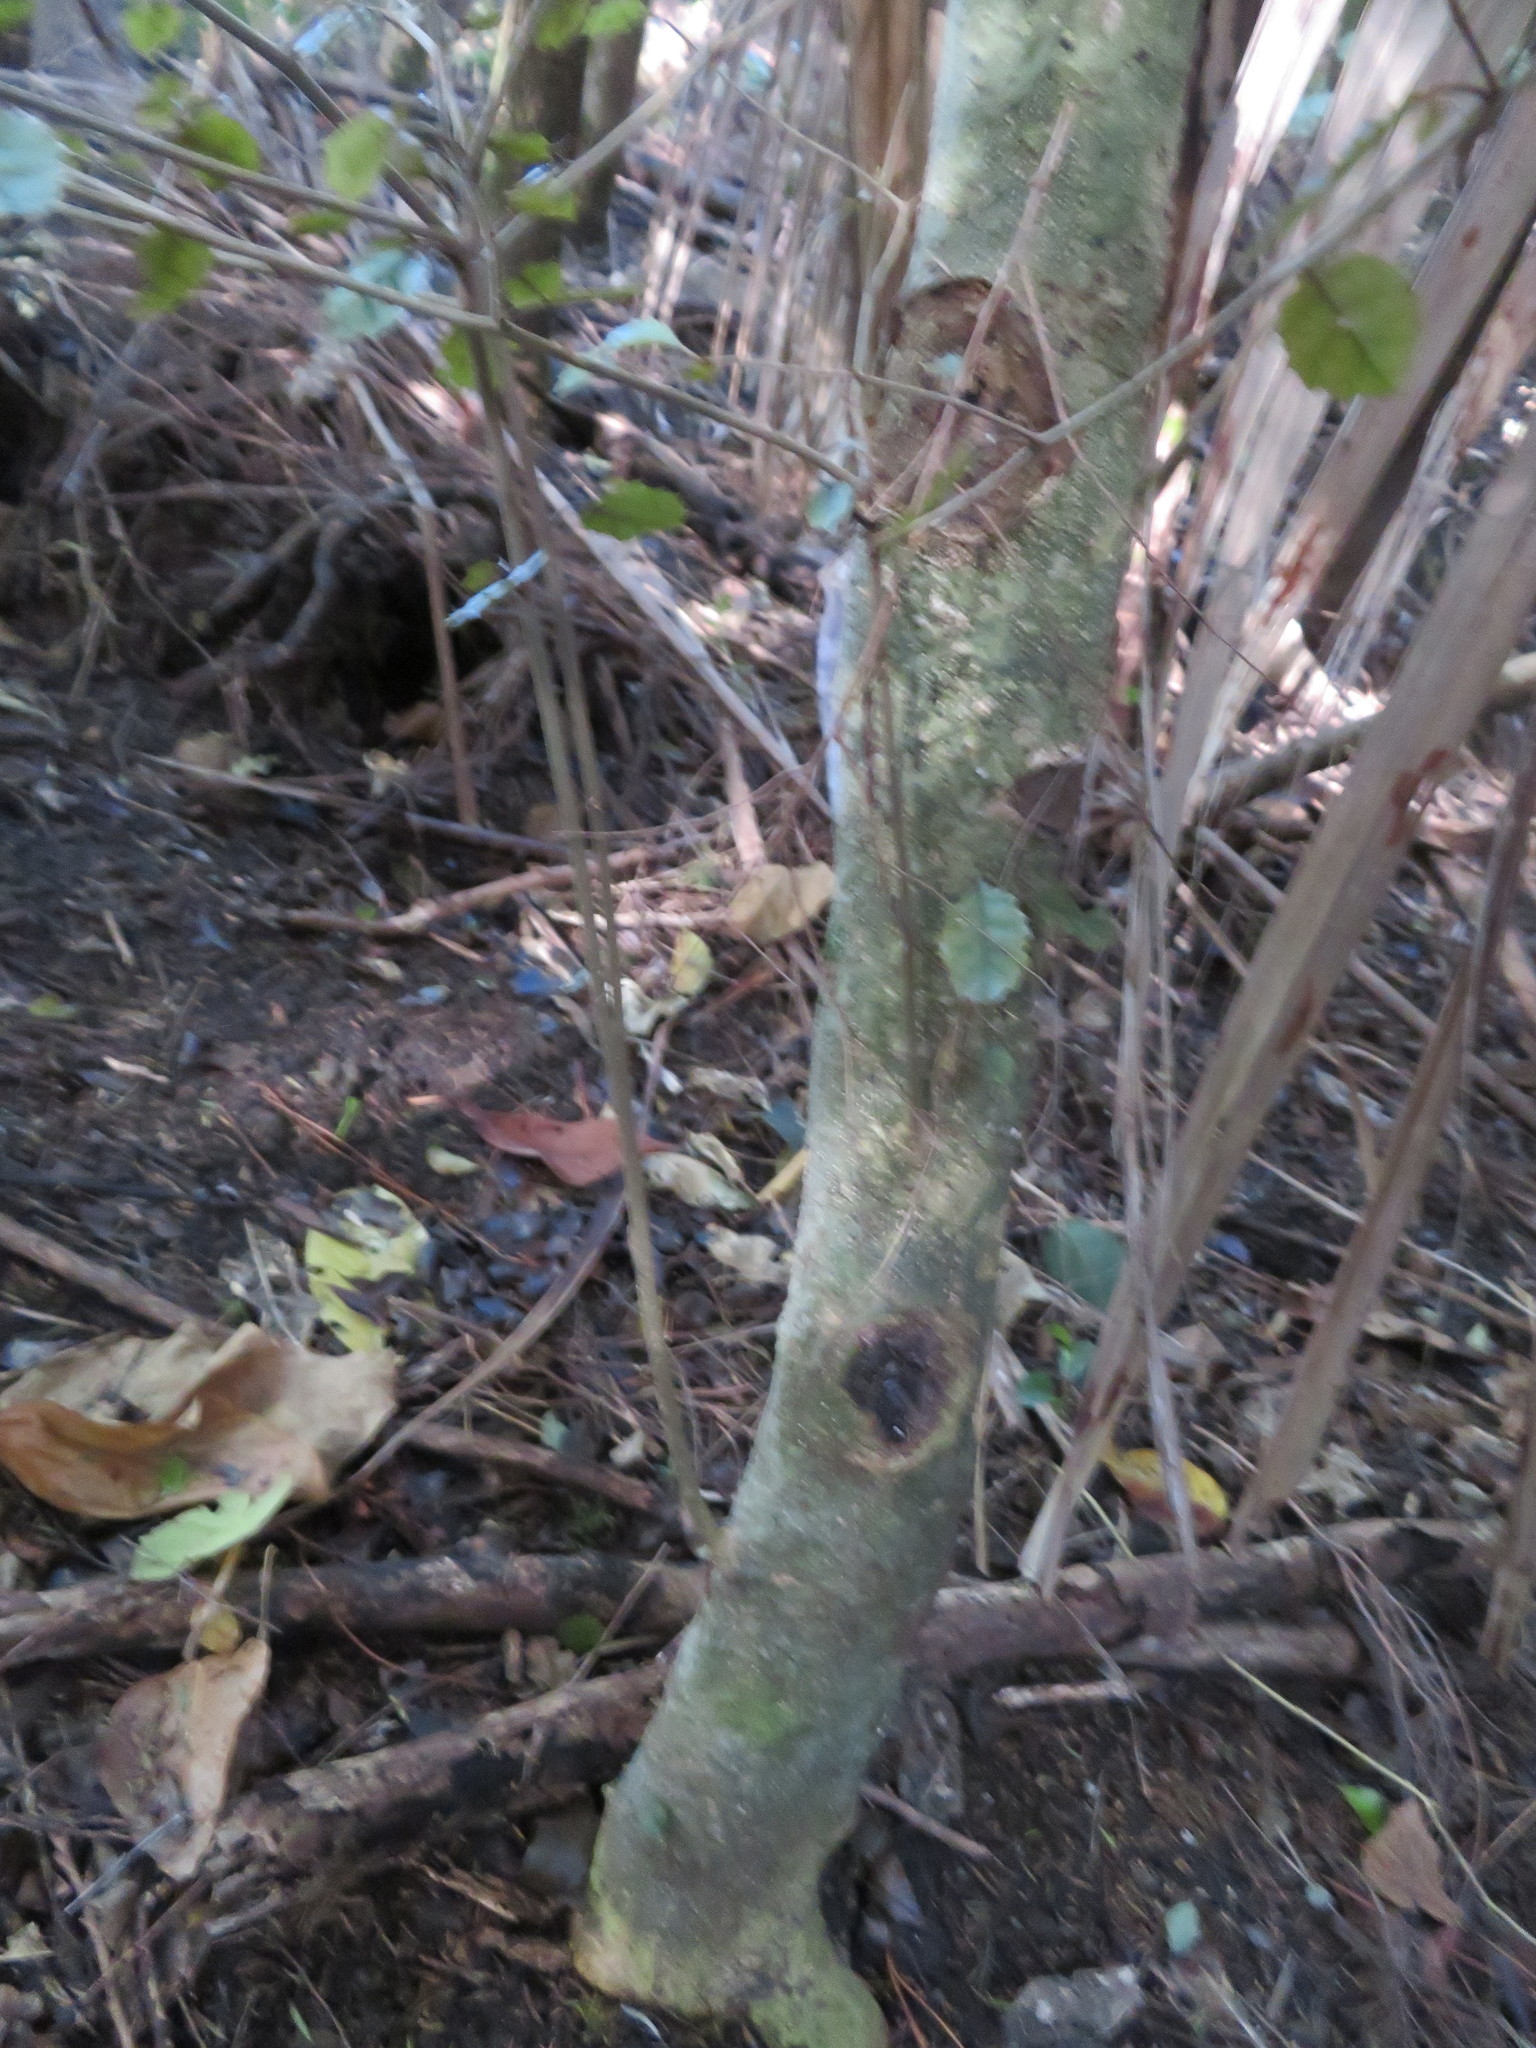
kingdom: Plantae
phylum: Tracheophyta
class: Magnoliopsida
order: Asterales
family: Rousseaceae
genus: Carpodetus
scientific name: Carpodetus serratus
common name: White mapau
